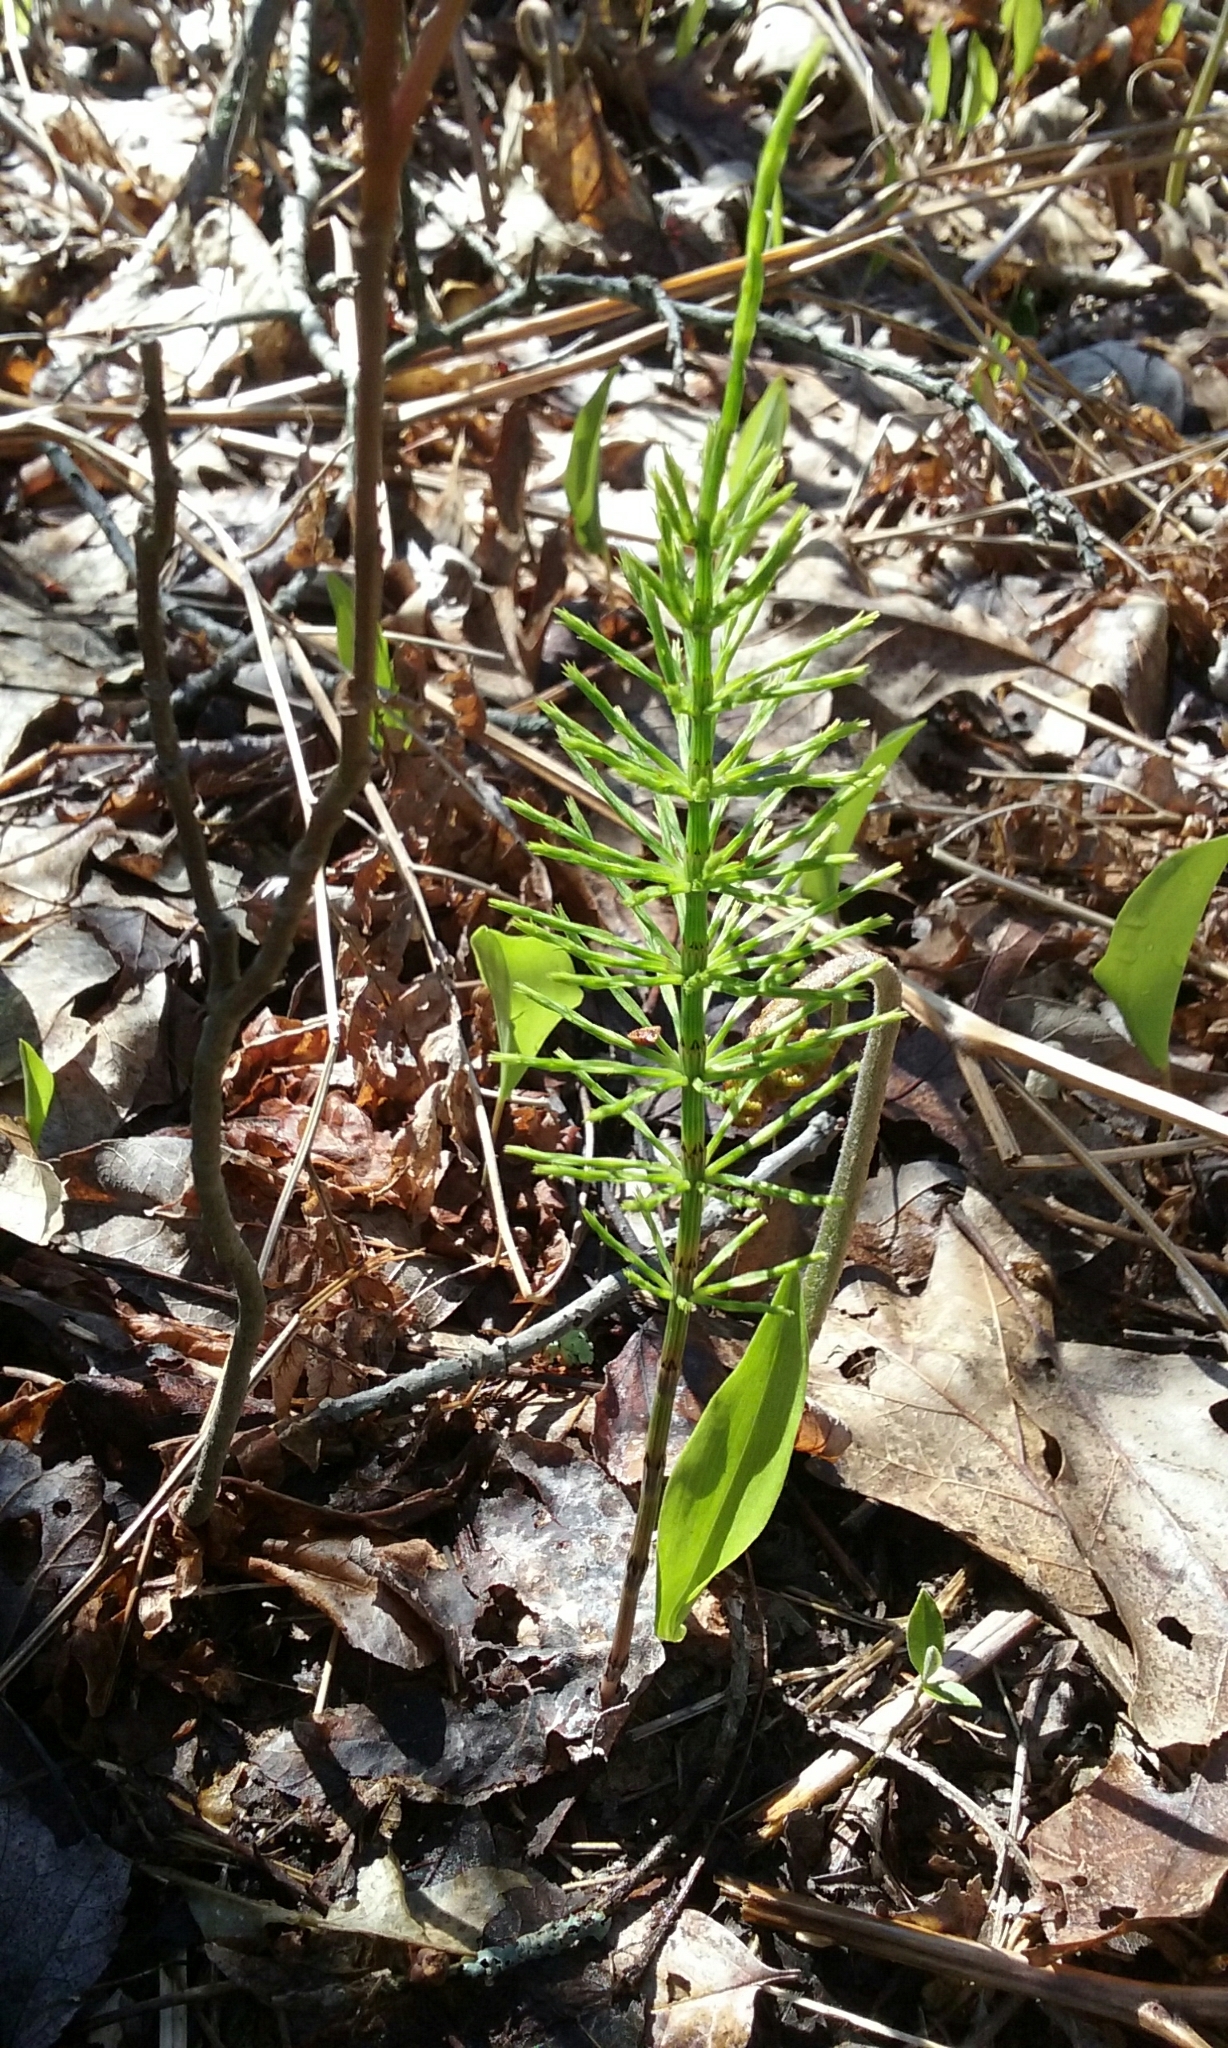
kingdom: Plantae
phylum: Tracheophyta
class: Polypodiopsida
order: Equisetales
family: Equisetaceae
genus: Equisetum
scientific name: Equisetum arvense
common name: Field horsetail
